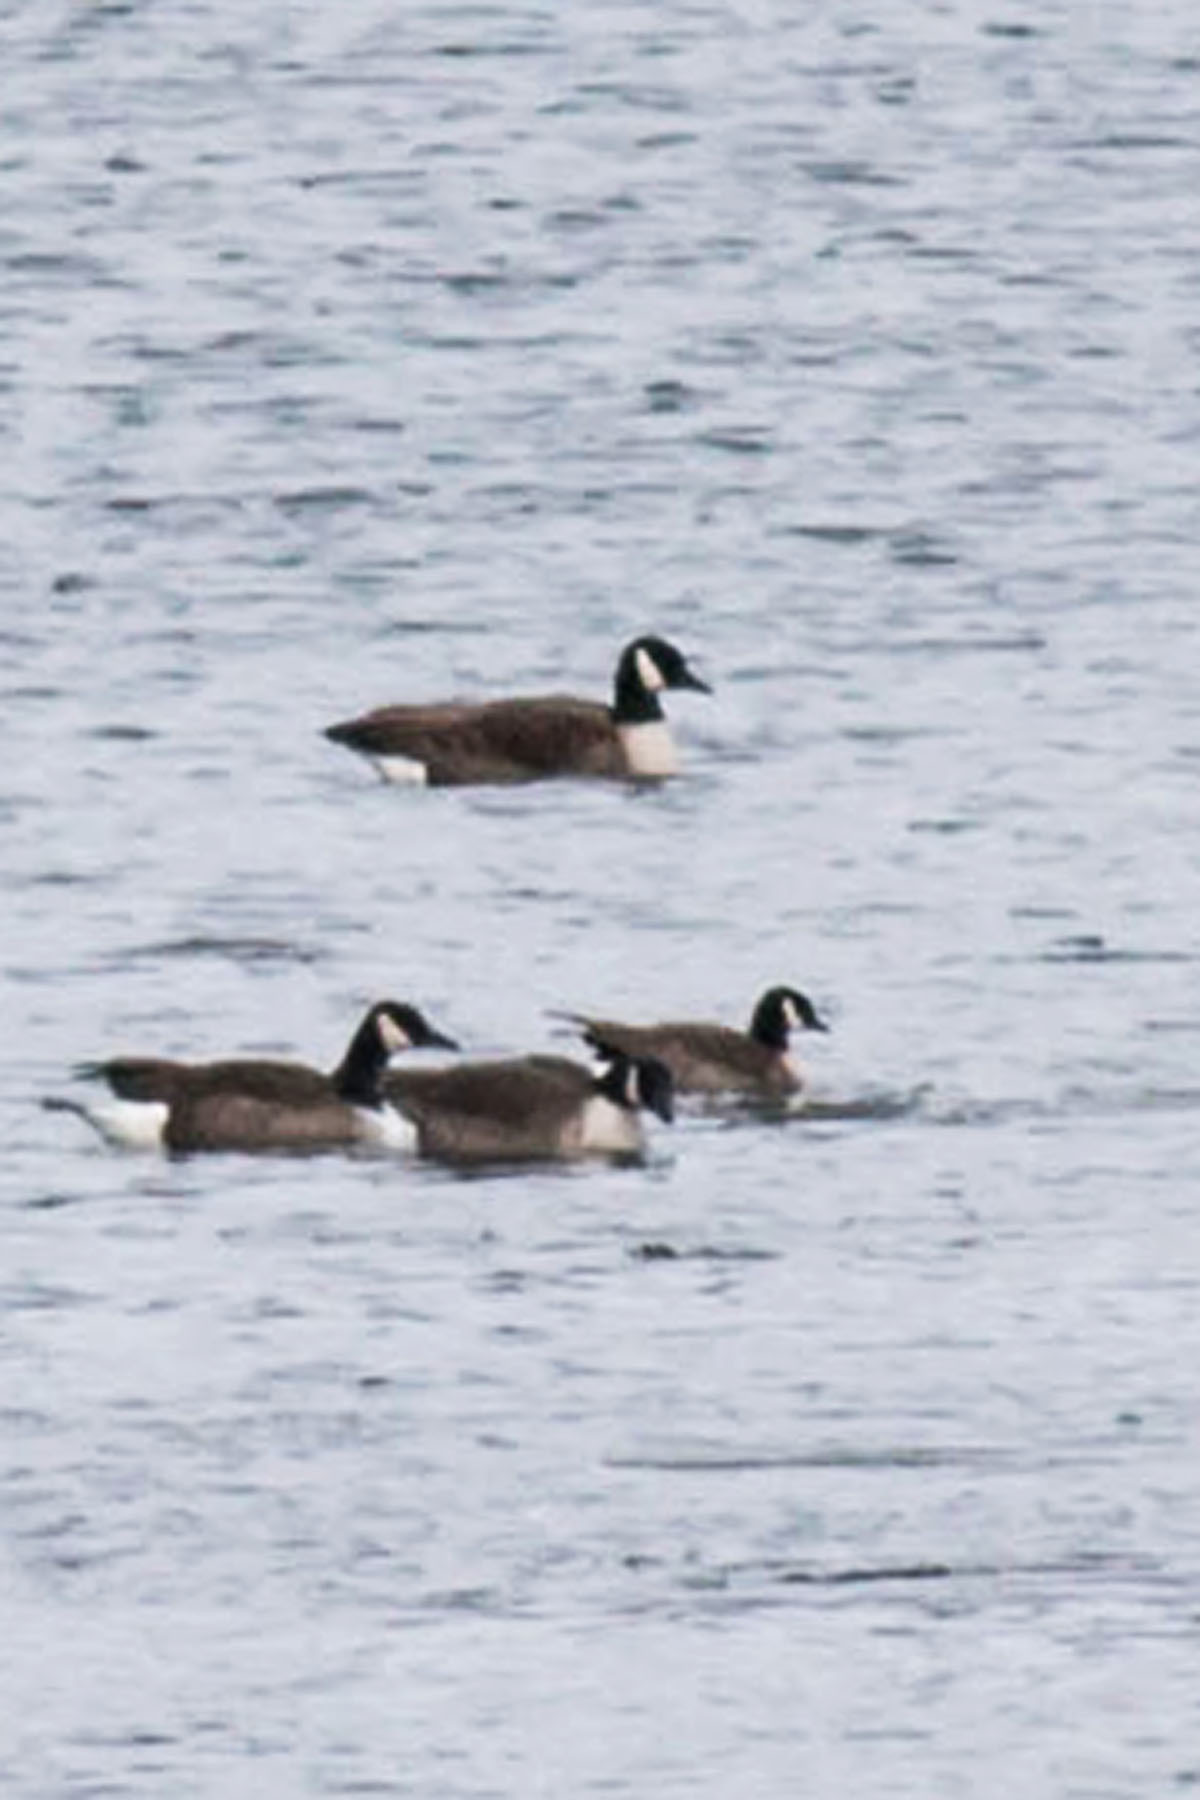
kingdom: Animalia
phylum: Chordata
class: Aves
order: Anseriformes
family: Anatidae
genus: Branta
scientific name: Branta hutchinsii
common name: Cackling goose
